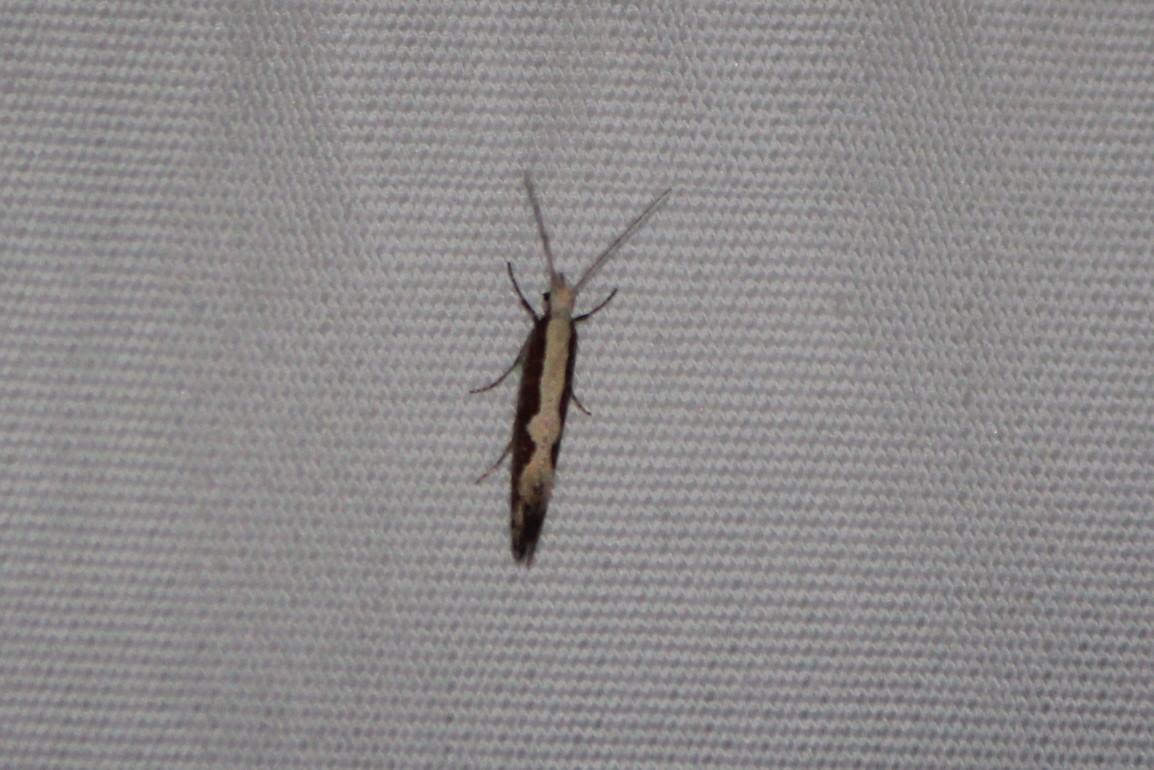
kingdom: Animalia
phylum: Arthropoda
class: Insecta
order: Lepidoptera
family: Plutellidae
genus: Plutella
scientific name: Plutella xylostella
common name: Diamond-back moth
